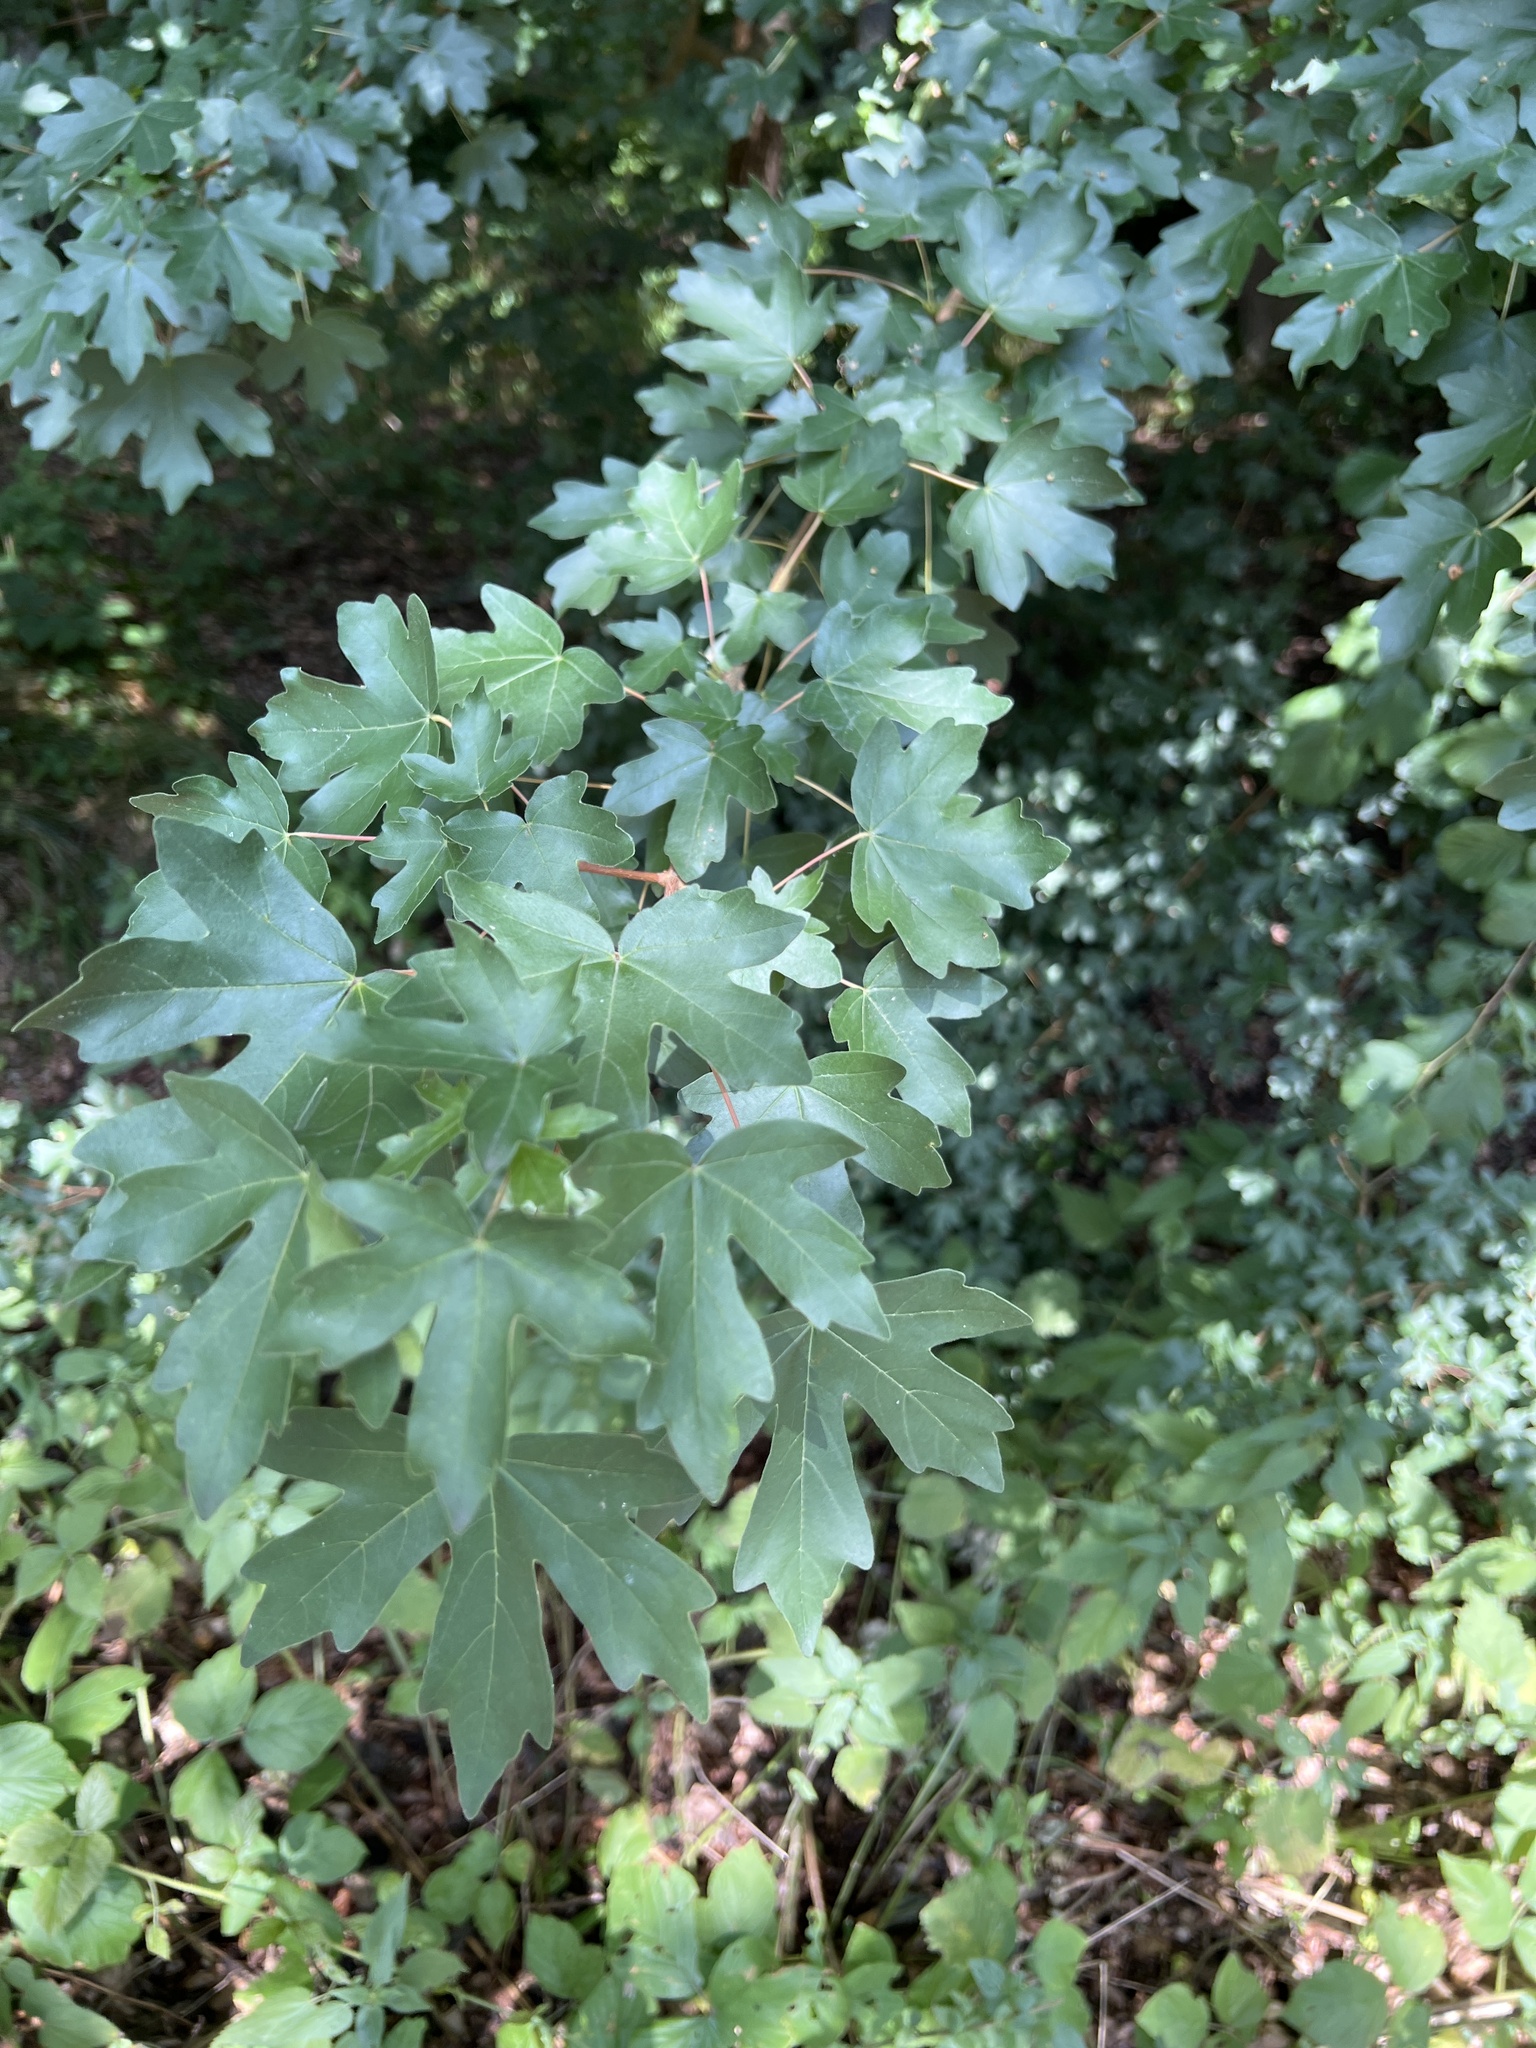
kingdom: Plantae
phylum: Tracheophyta
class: Magnoliopsida
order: Sapindales
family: Sapindaceae
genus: Acer
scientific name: Acer campestre
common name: Field maple
